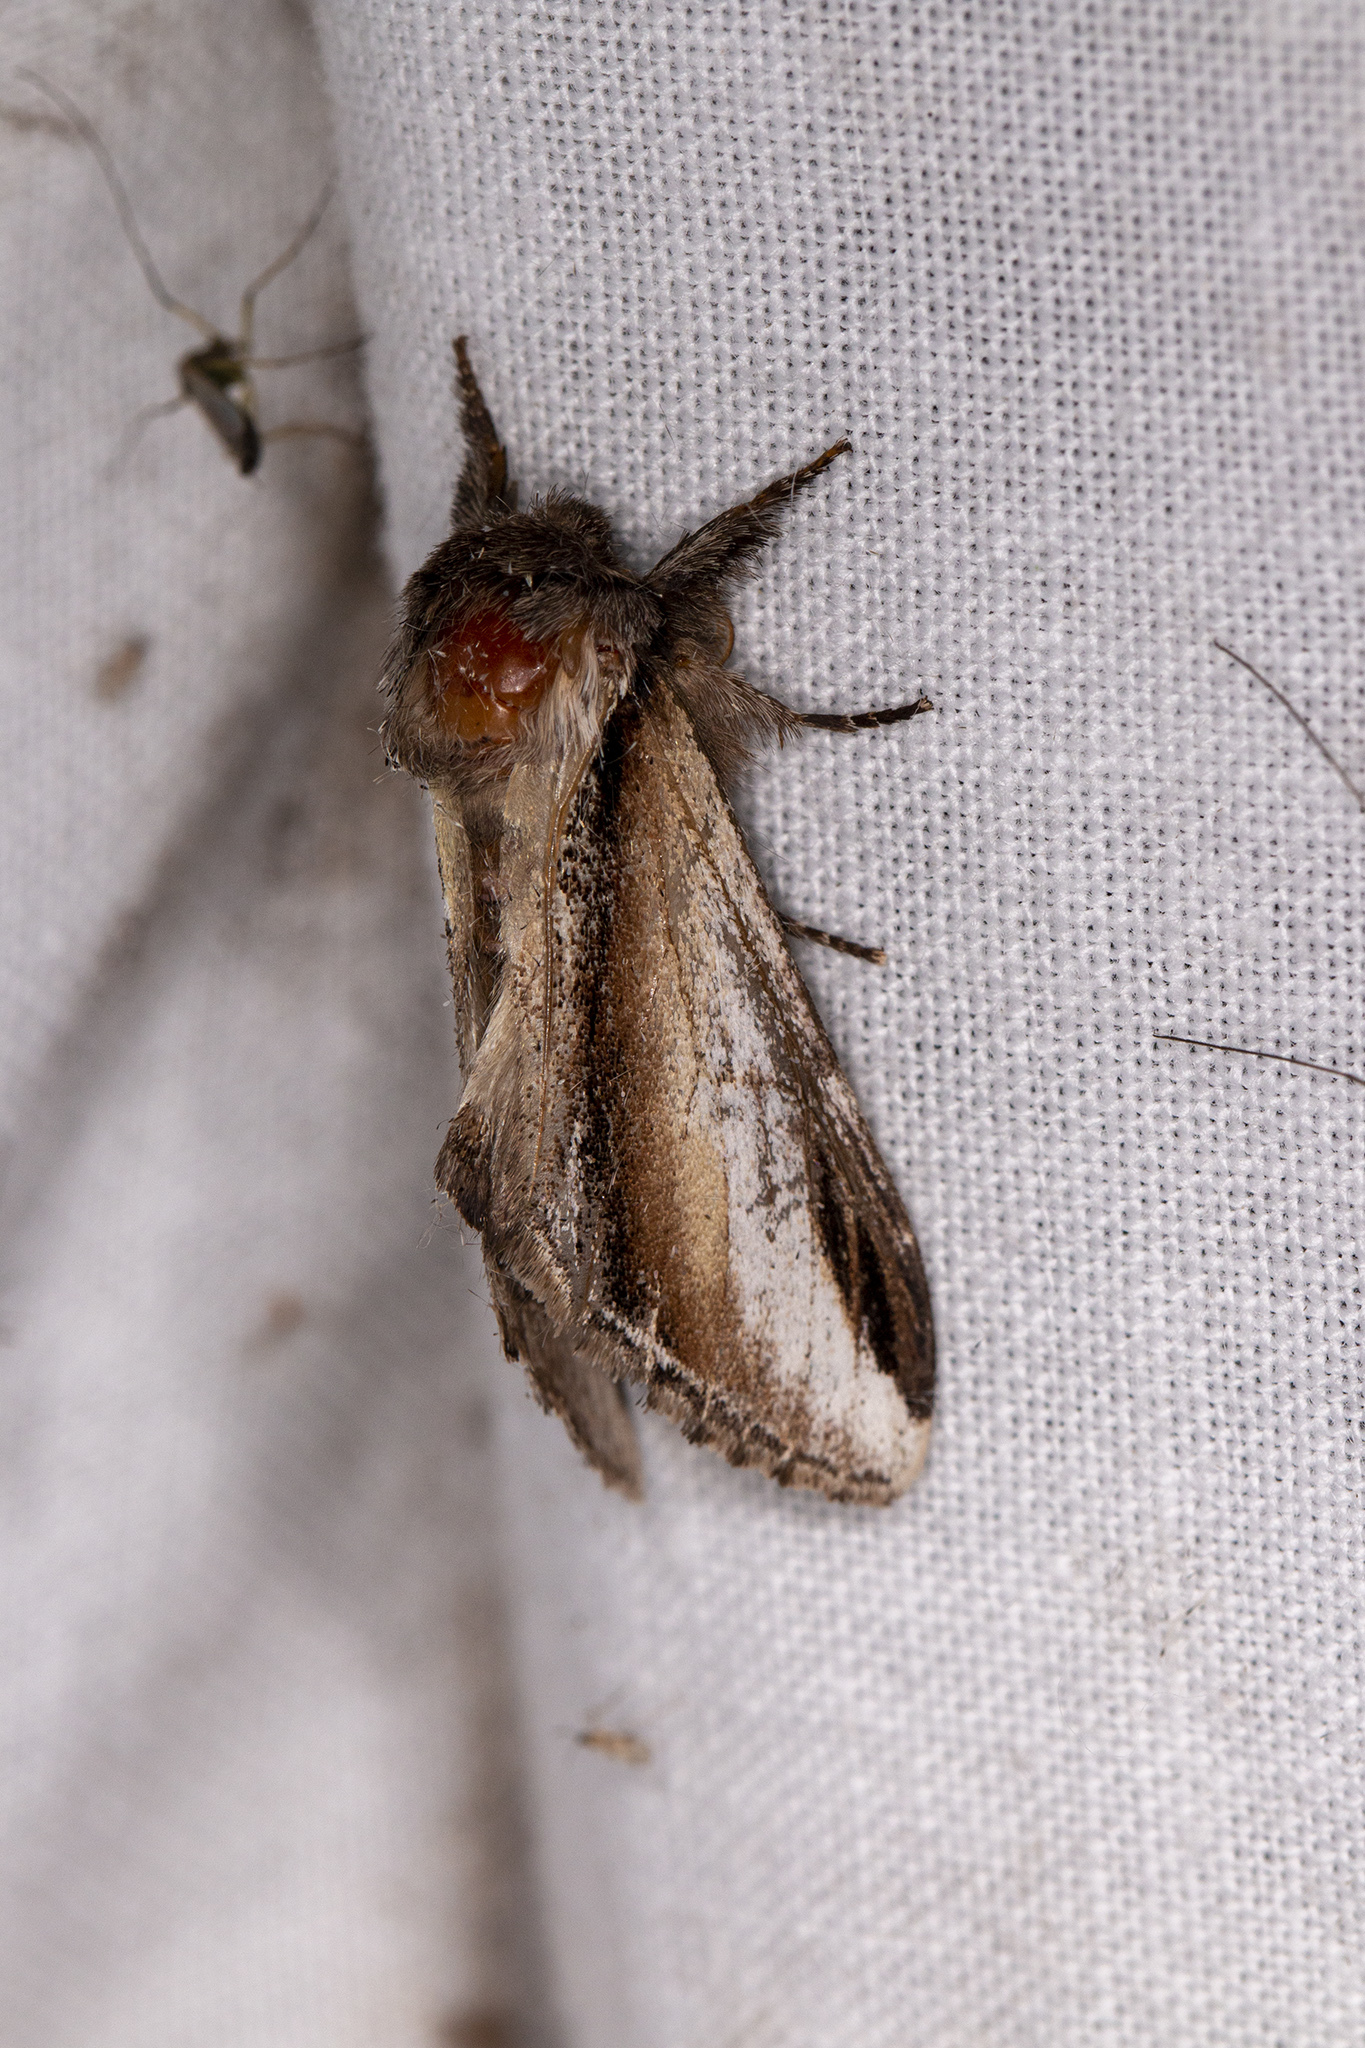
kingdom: Animalia
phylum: Arthropoda
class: Insecta
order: Lepidoptera
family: Notodontidae
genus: Pheosia
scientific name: Pheosia tremula
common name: Swallow prominent
